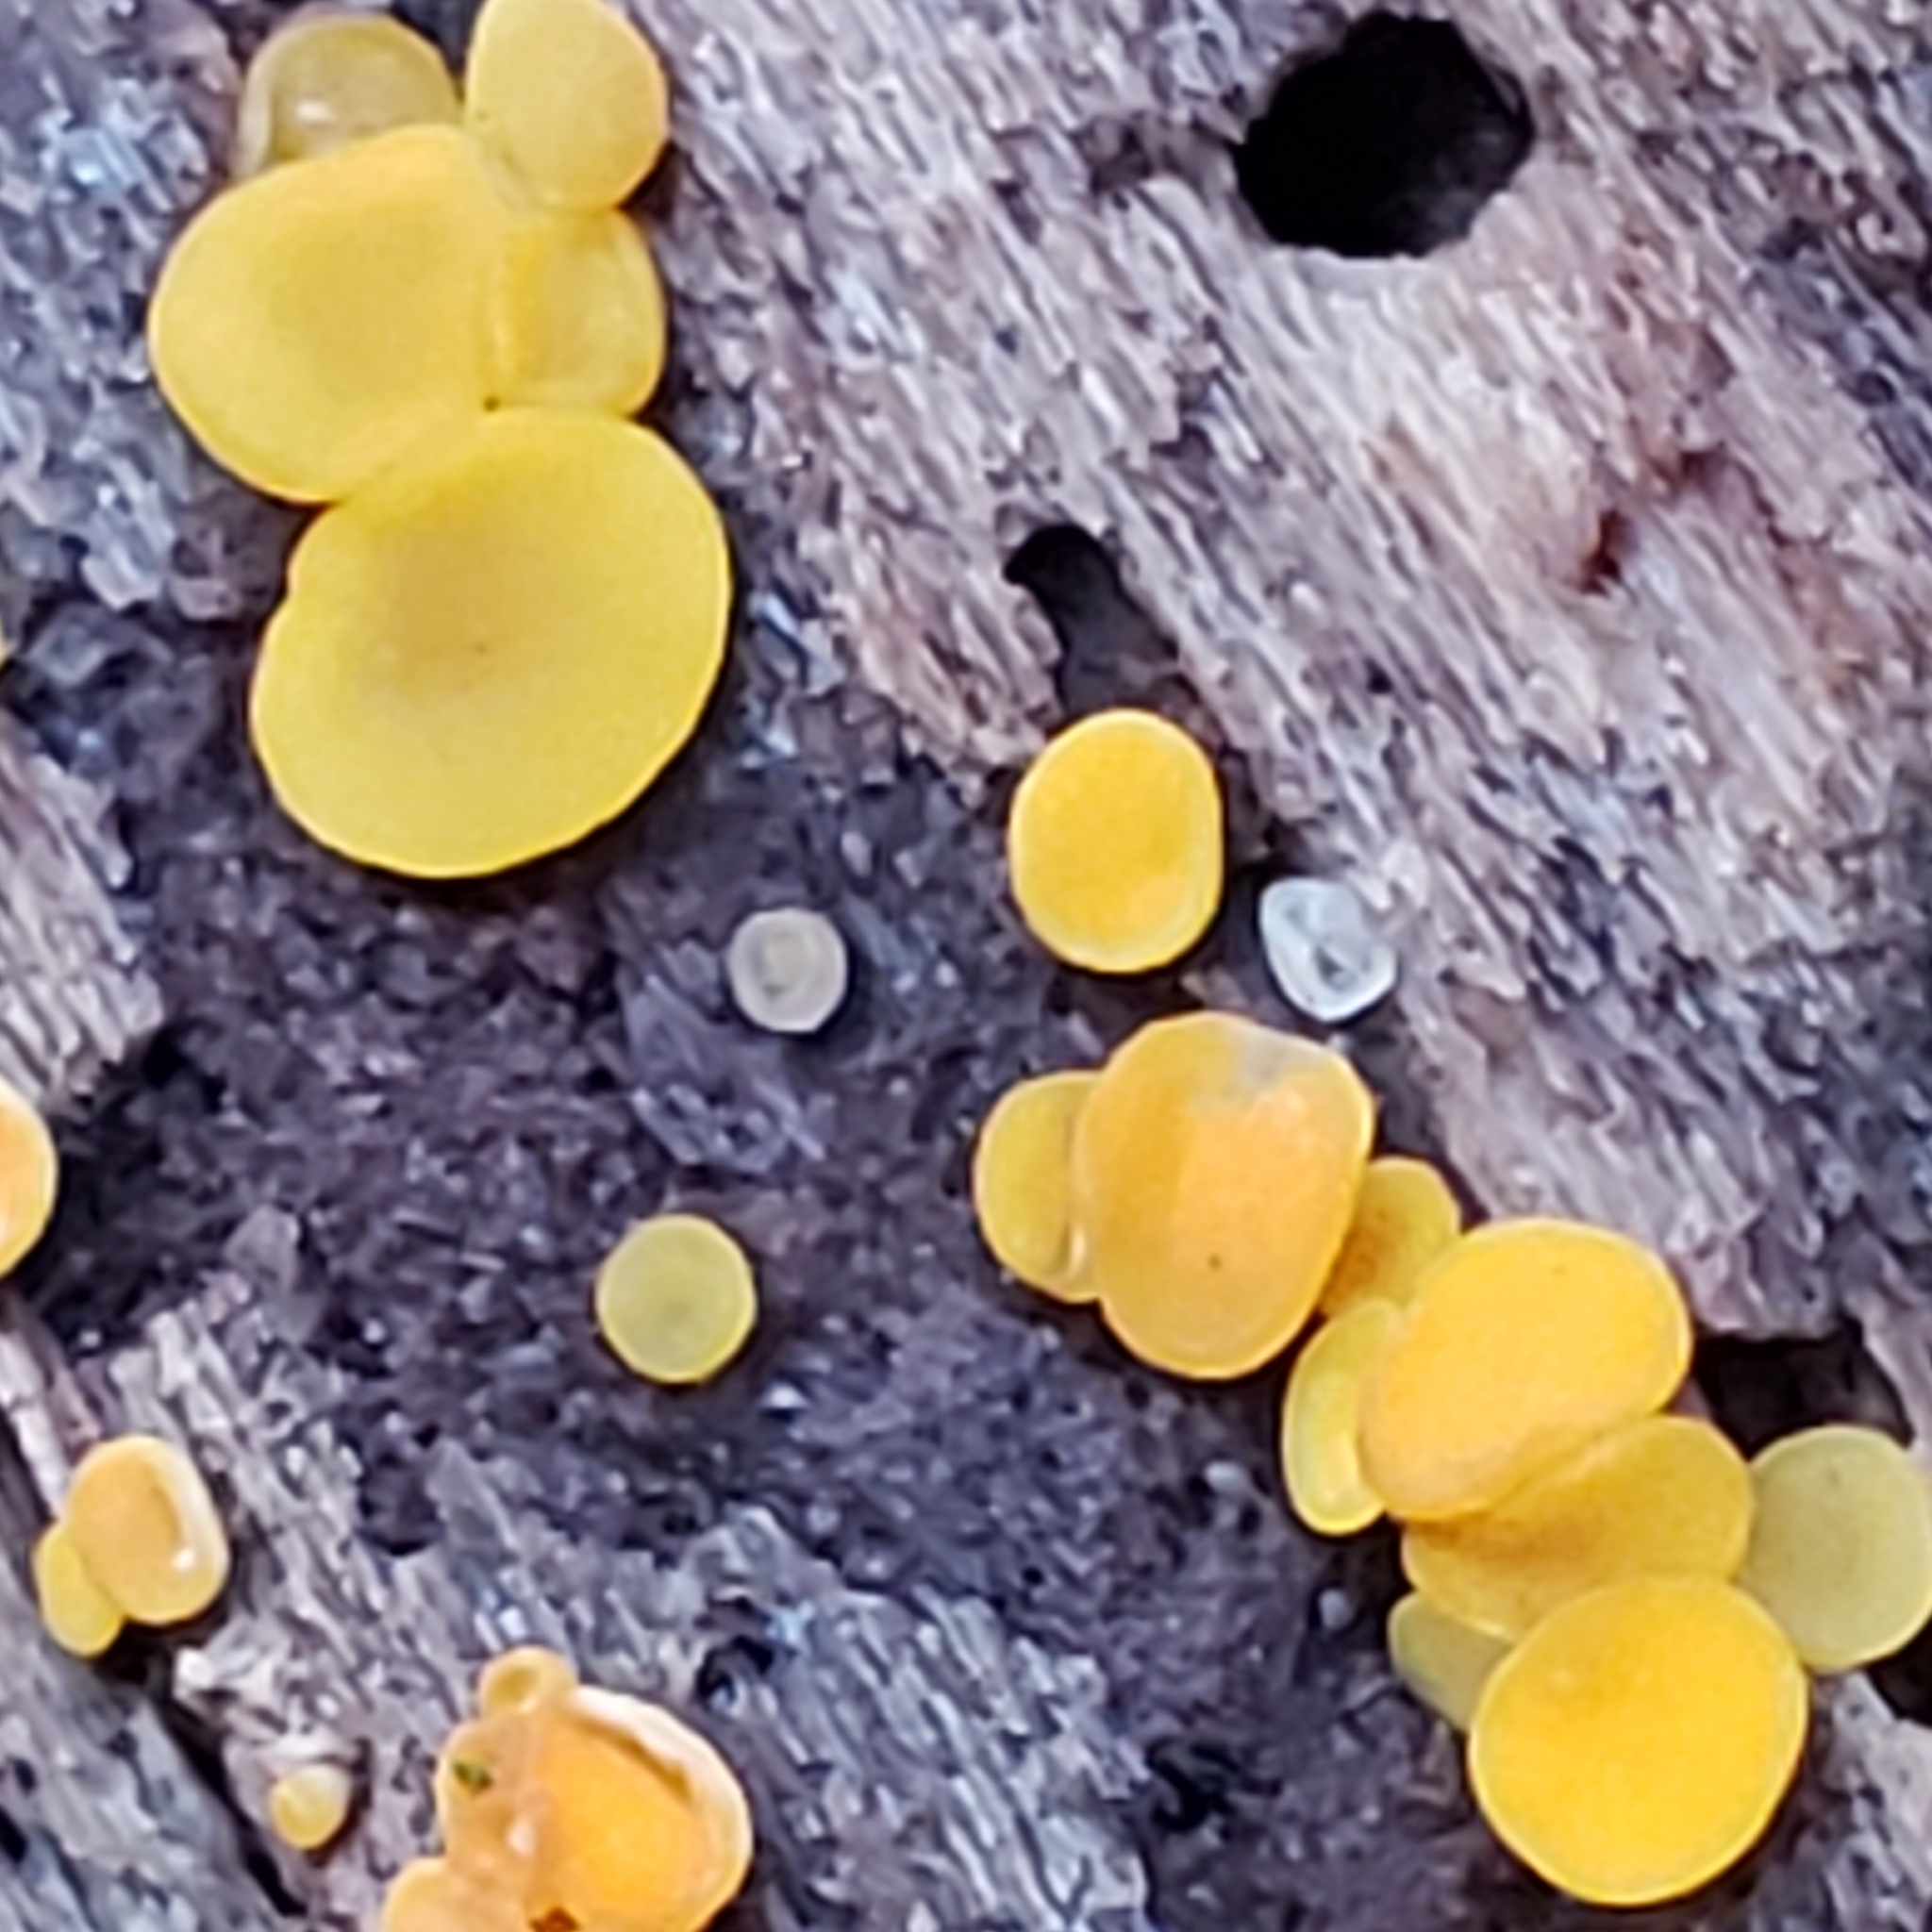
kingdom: Fungi
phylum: Ascomycota
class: Leotiomycetes
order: Helotiales
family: Pezizellaceae
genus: Calycina
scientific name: Calycina citrina
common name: Yellow fairy cups
